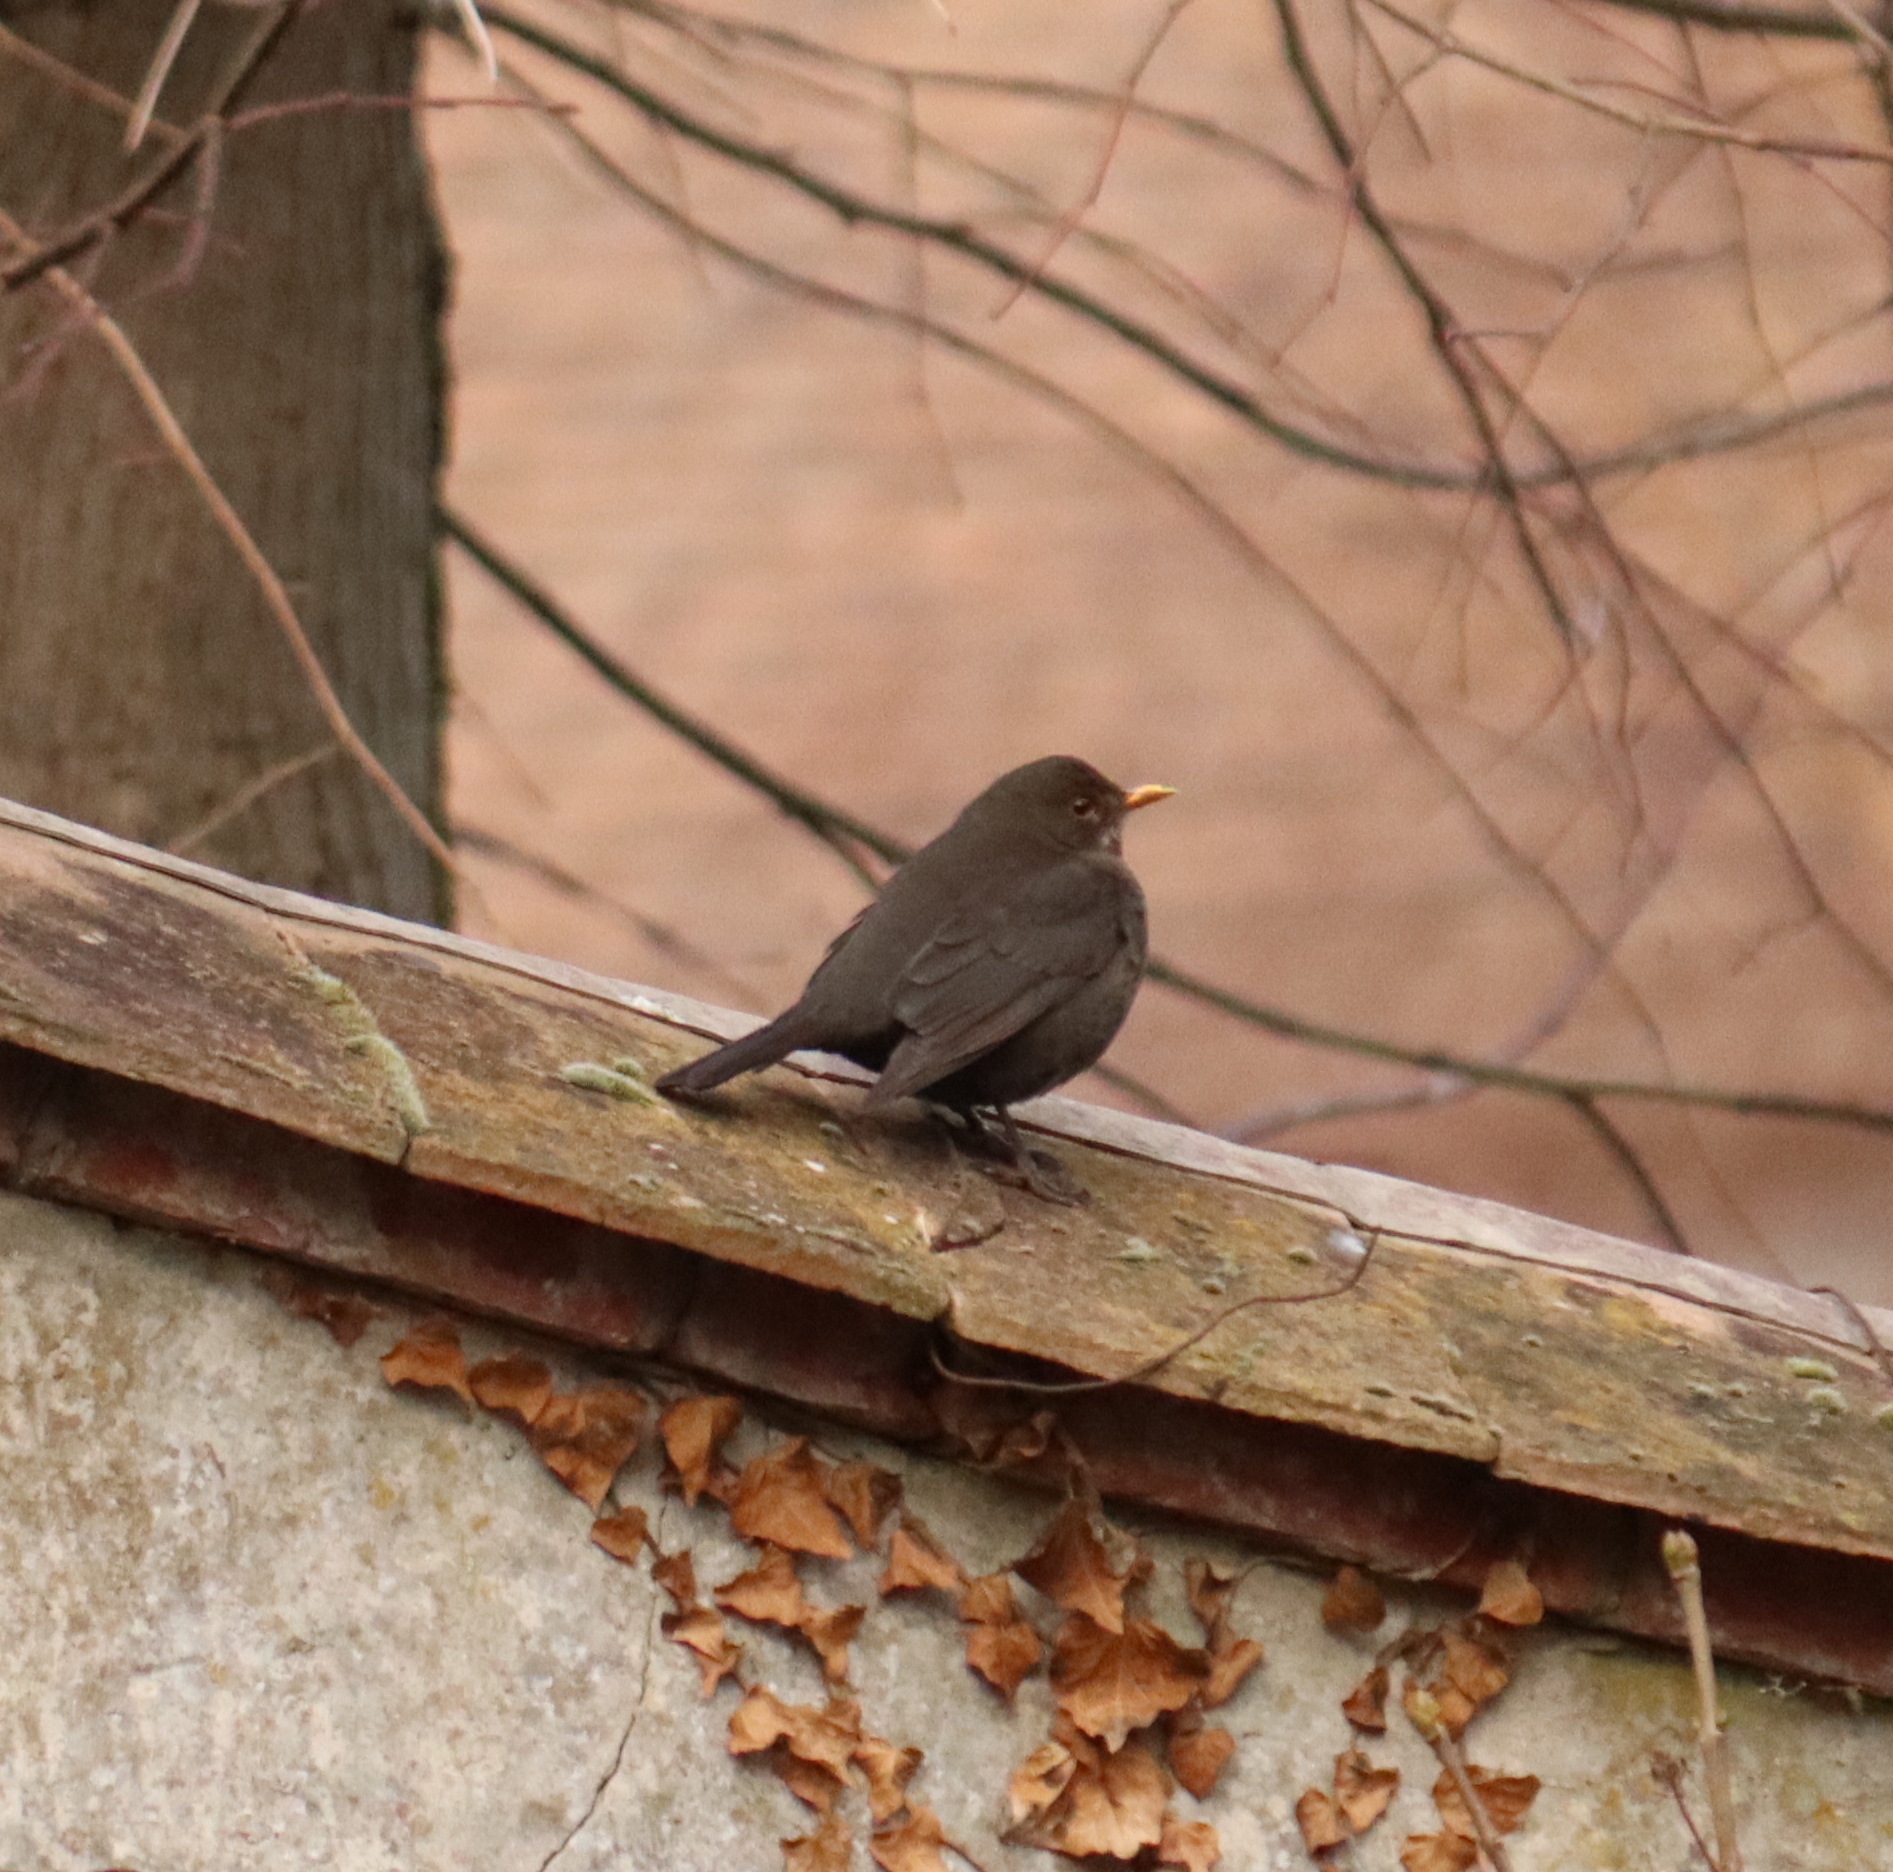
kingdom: Animalia
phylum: Chordata
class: Aves
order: Passeriformes
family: Turdidae
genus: Turdus
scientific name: Turdus merula
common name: Common blackbird
